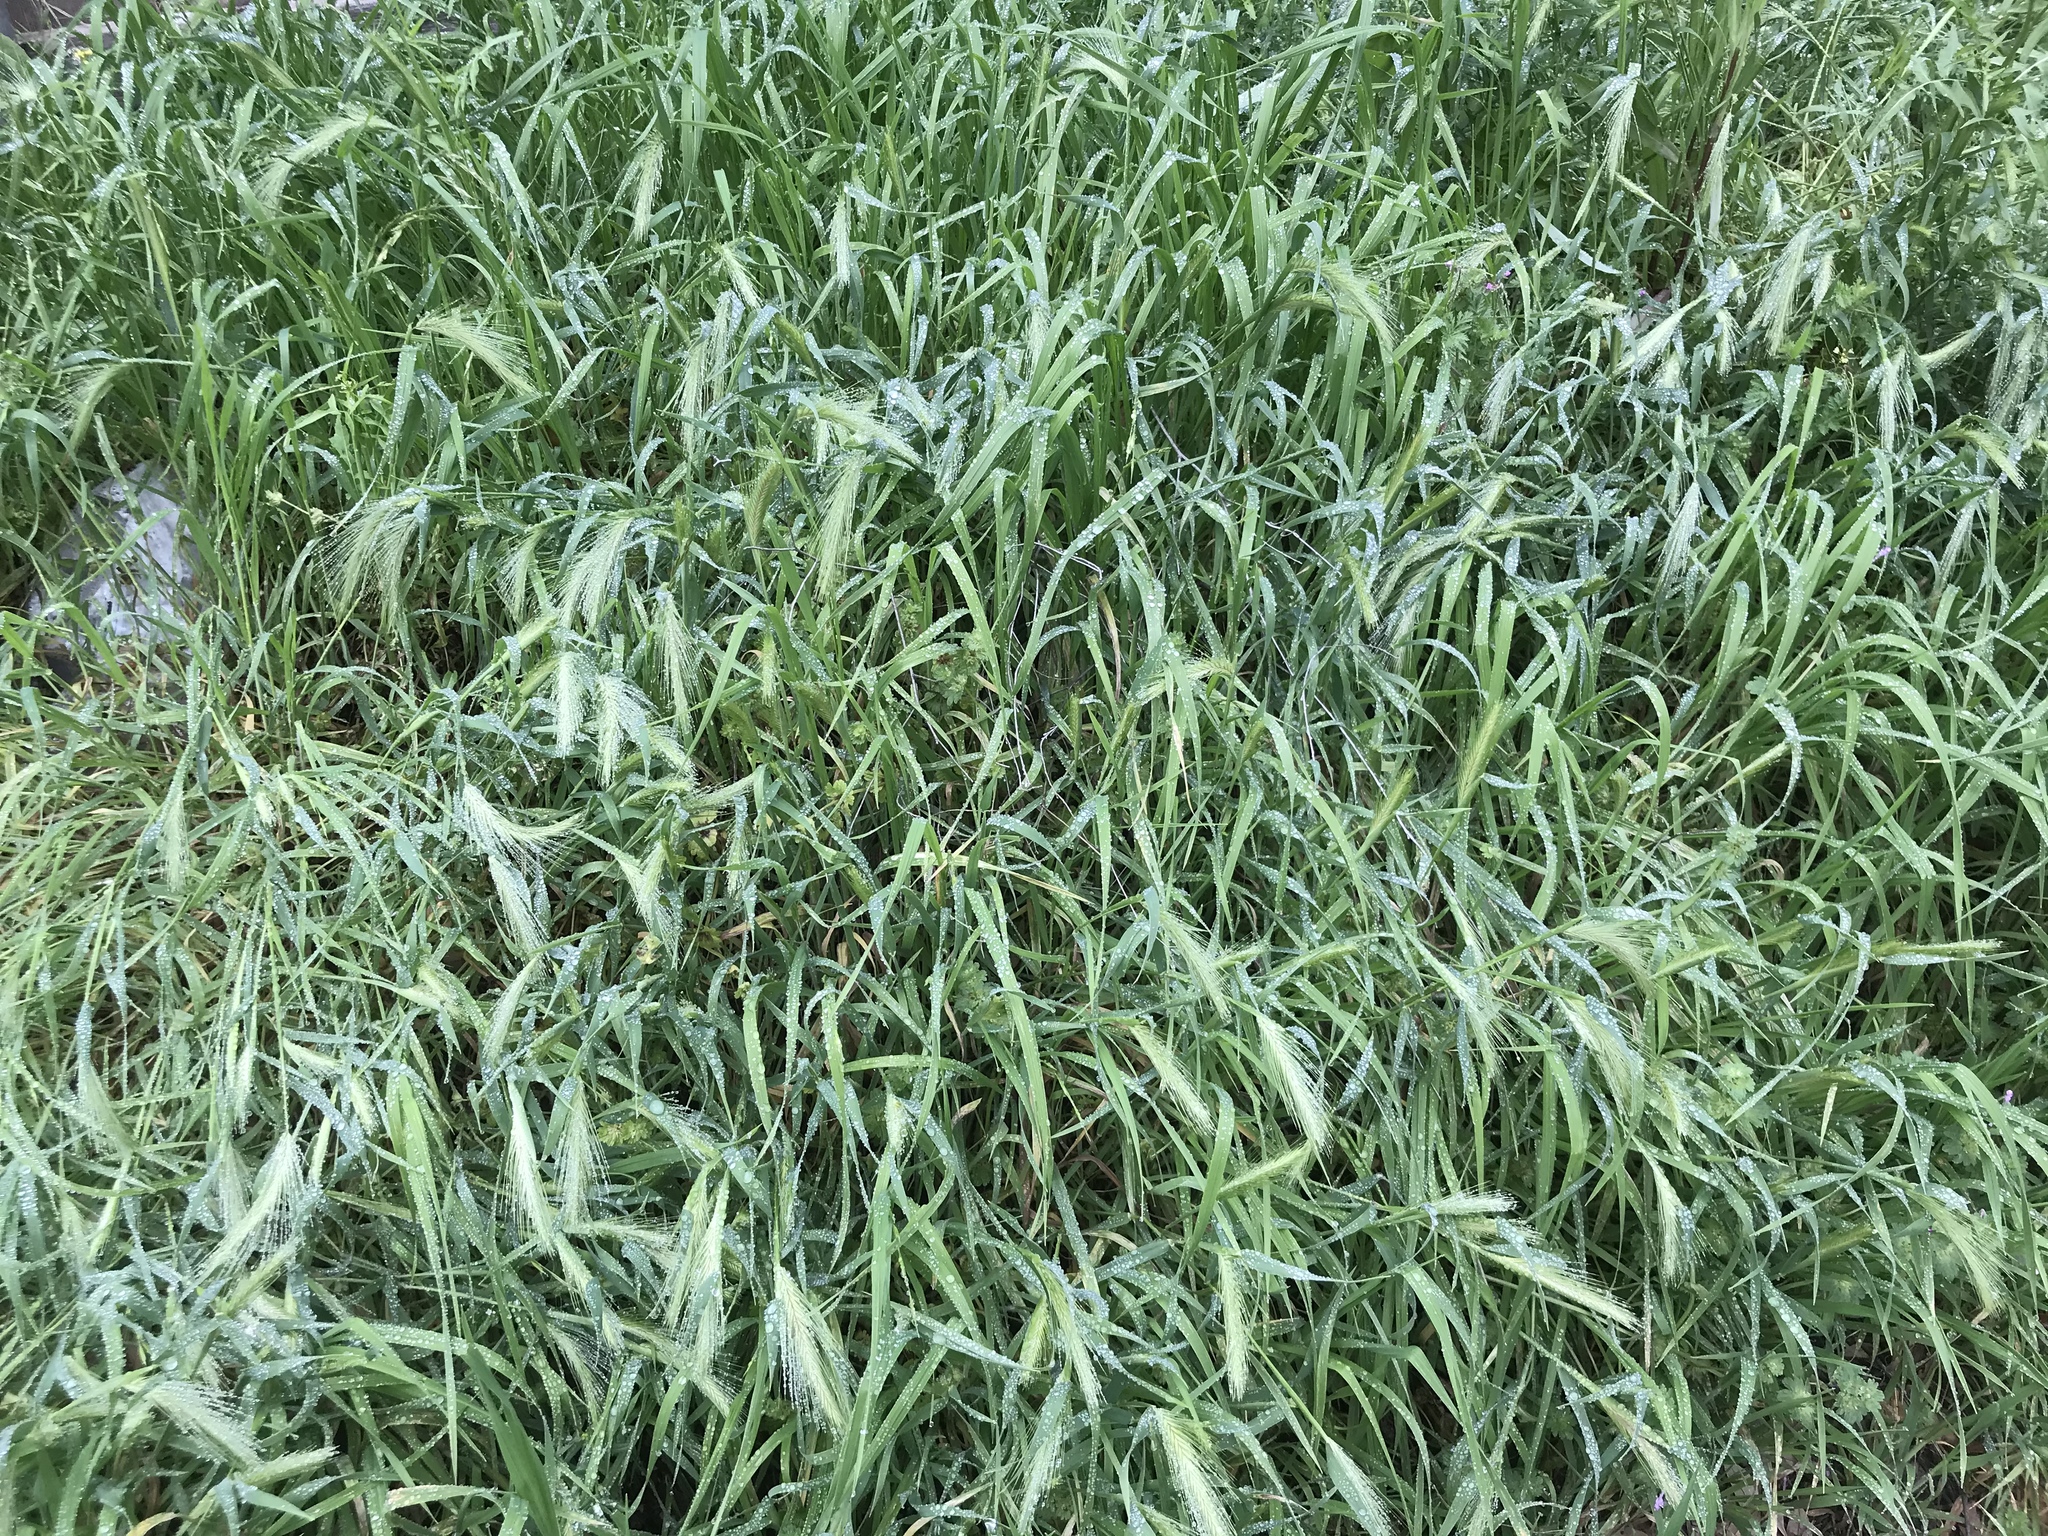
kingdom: Plantae
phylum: Tracheophyta
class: Liliopsida
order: Poales
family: Poaceae
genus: Hordeum
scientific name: Hordeum murinum
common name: Wall barley
